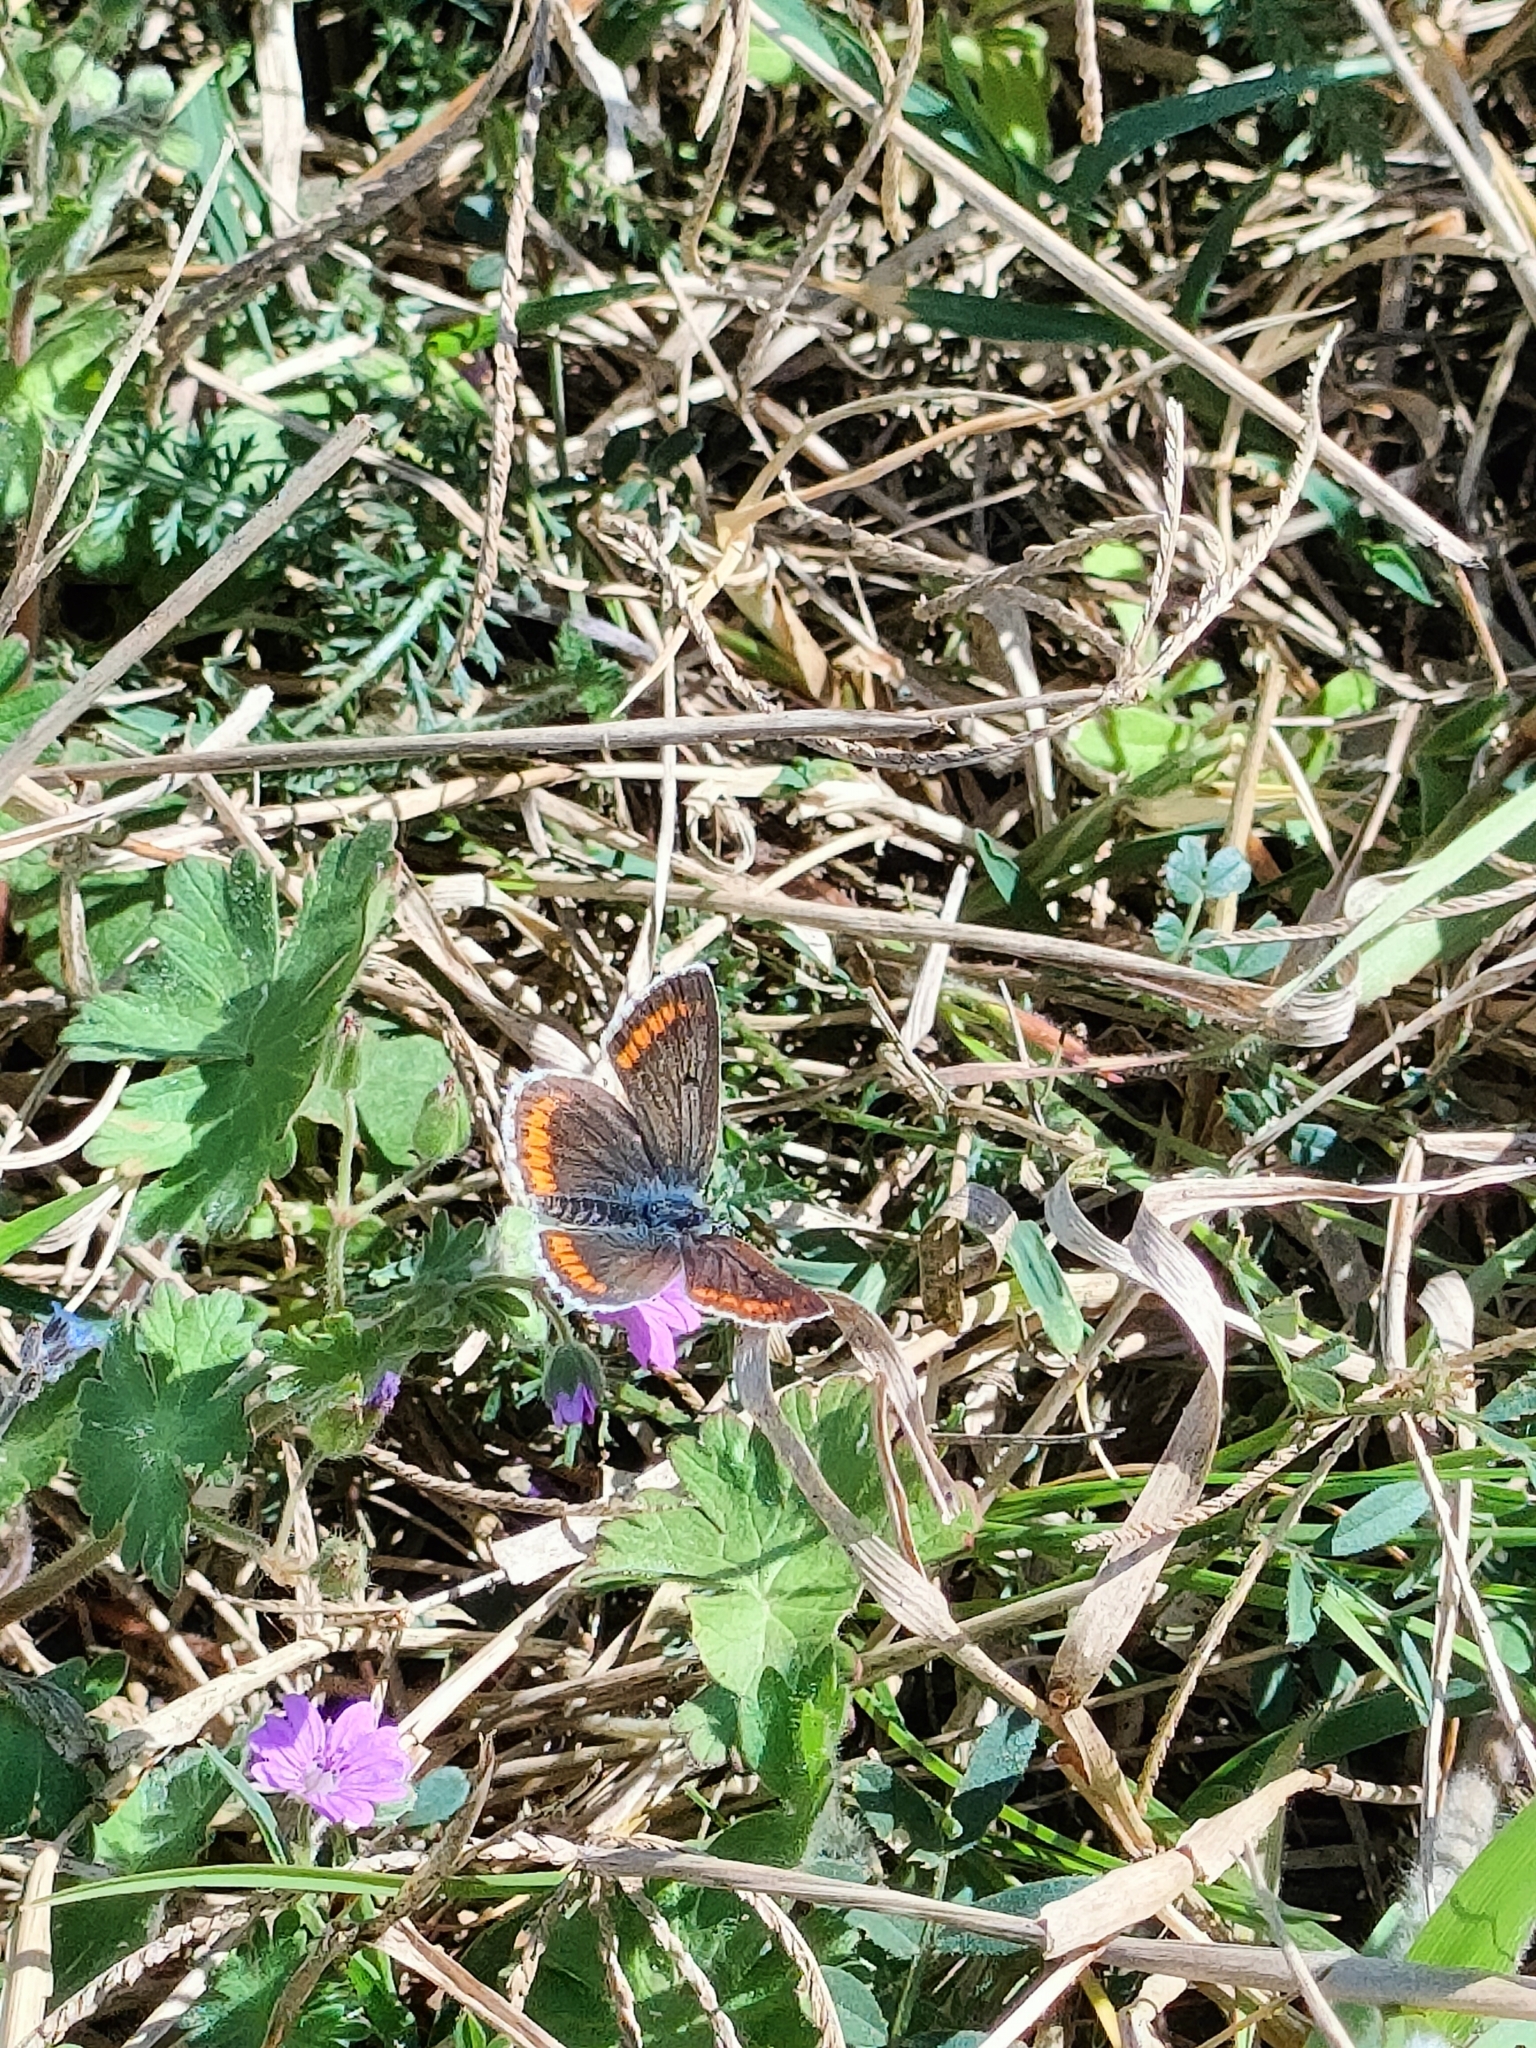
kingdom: Animalia
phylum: Arthropoda
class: Insecta
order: Lepidoptera
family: Lycaenidae
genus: Aricia
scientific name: Aricia agestis
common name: Brown argus
